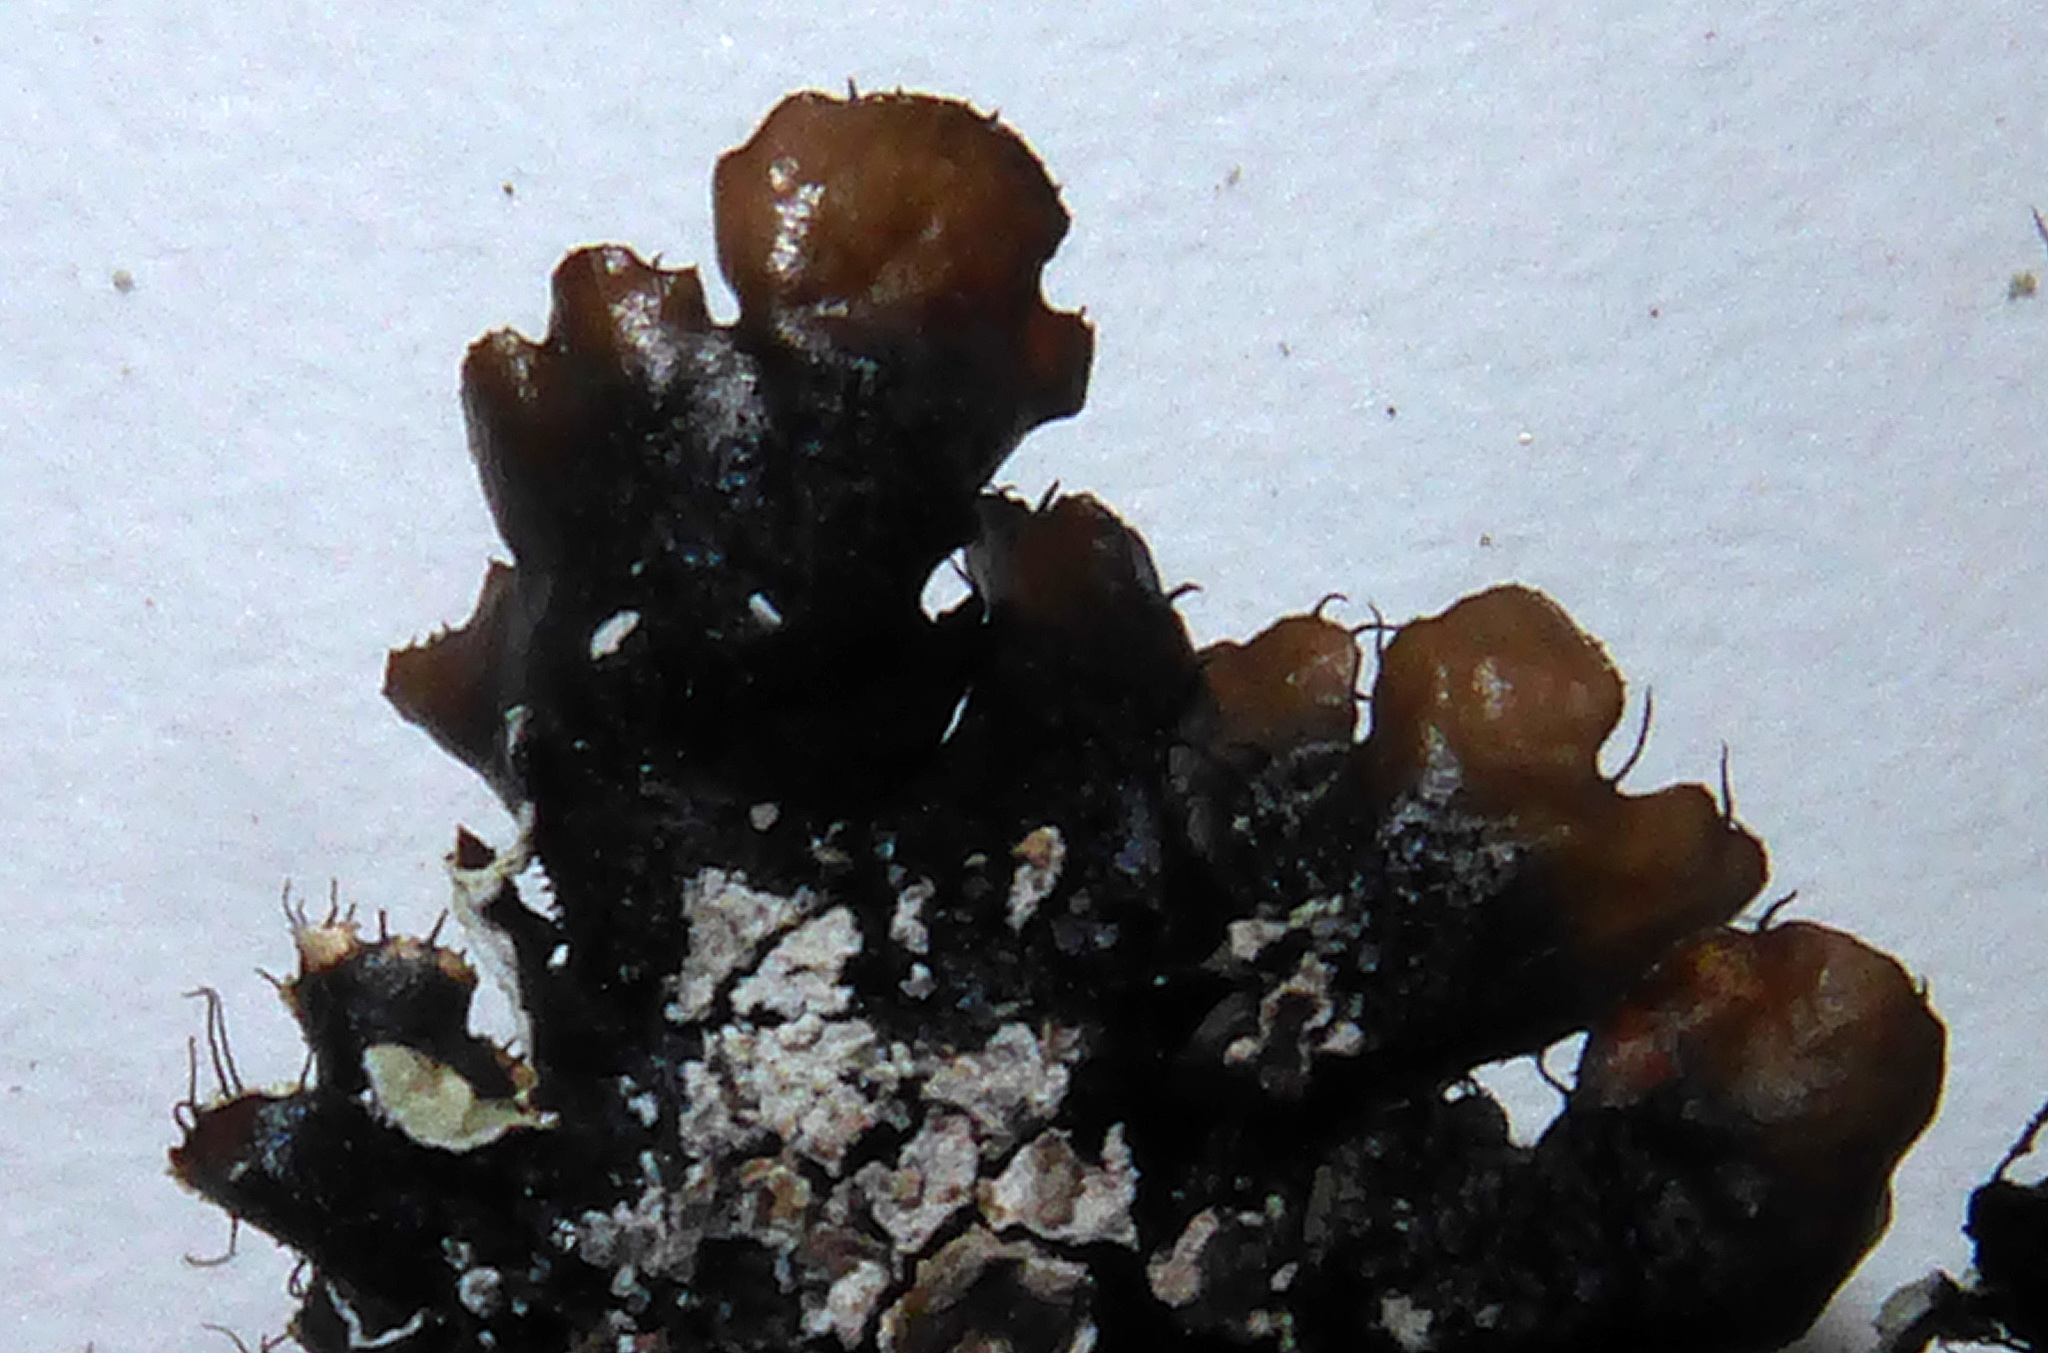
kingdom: Fungi
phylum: Ascomycota
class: Lecanoromycetes
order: Lecanorales
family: Parmeliaceae
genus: Parmotrema
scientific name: Parmotrema crinitum
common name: Salted ruffle lichen
